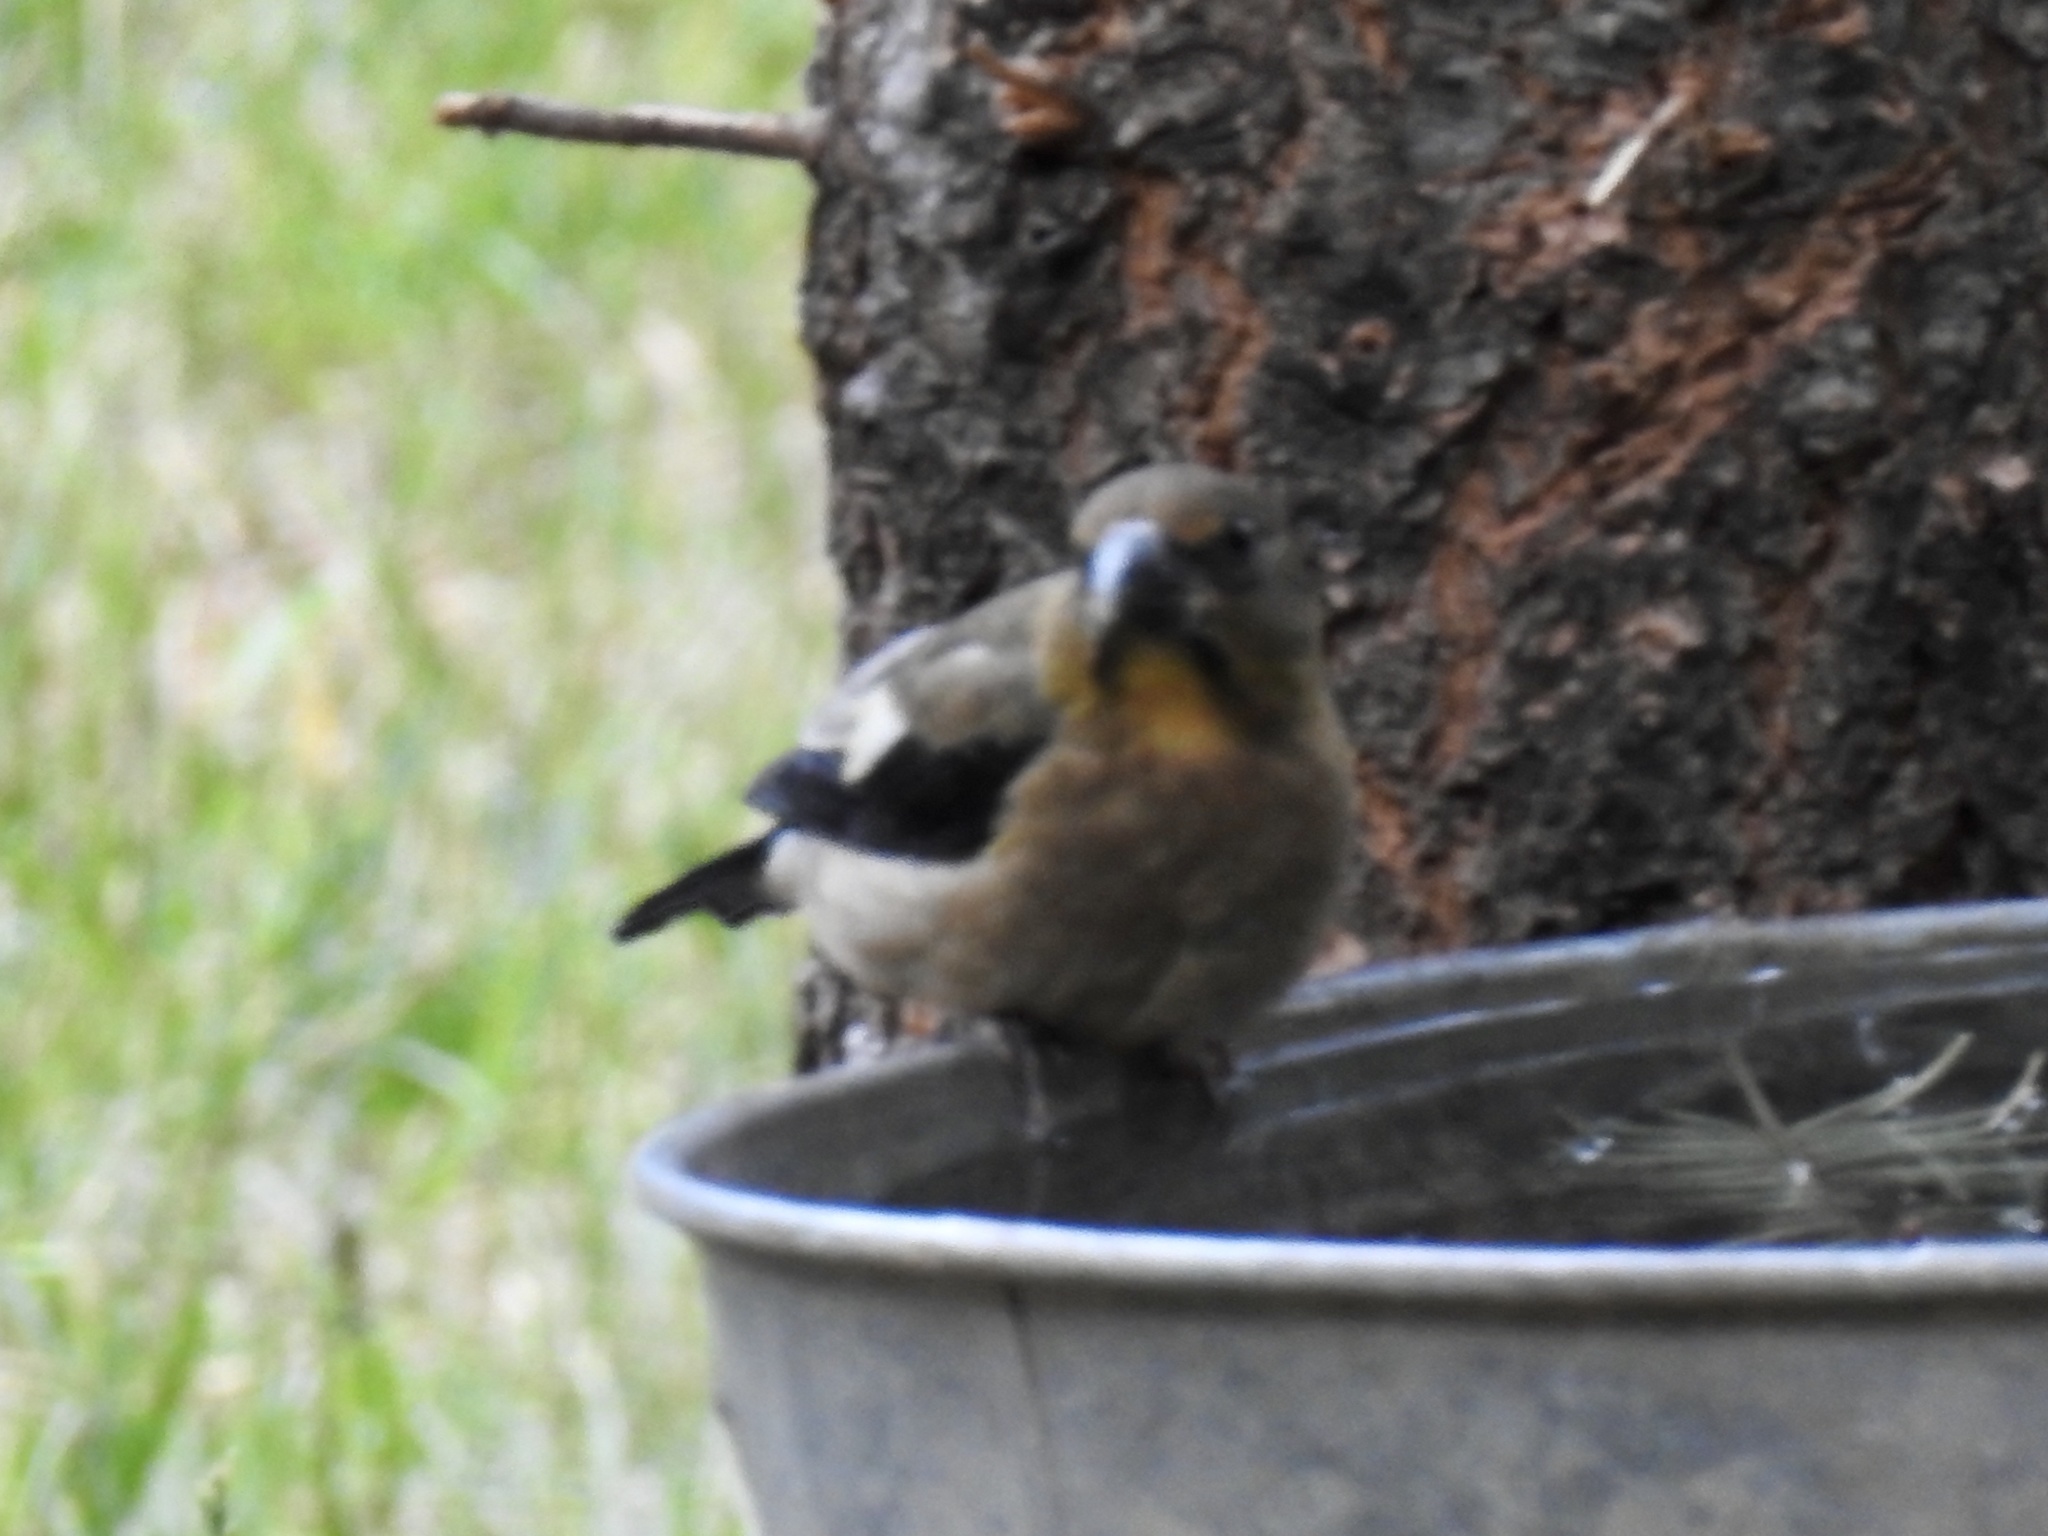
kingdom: Animalia
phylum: Chordata
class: Aves
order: Passeriformes
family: Fringillidae
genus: Hesperiphona
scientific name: Hesperiphona vespertina
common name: Evening grosbeak
